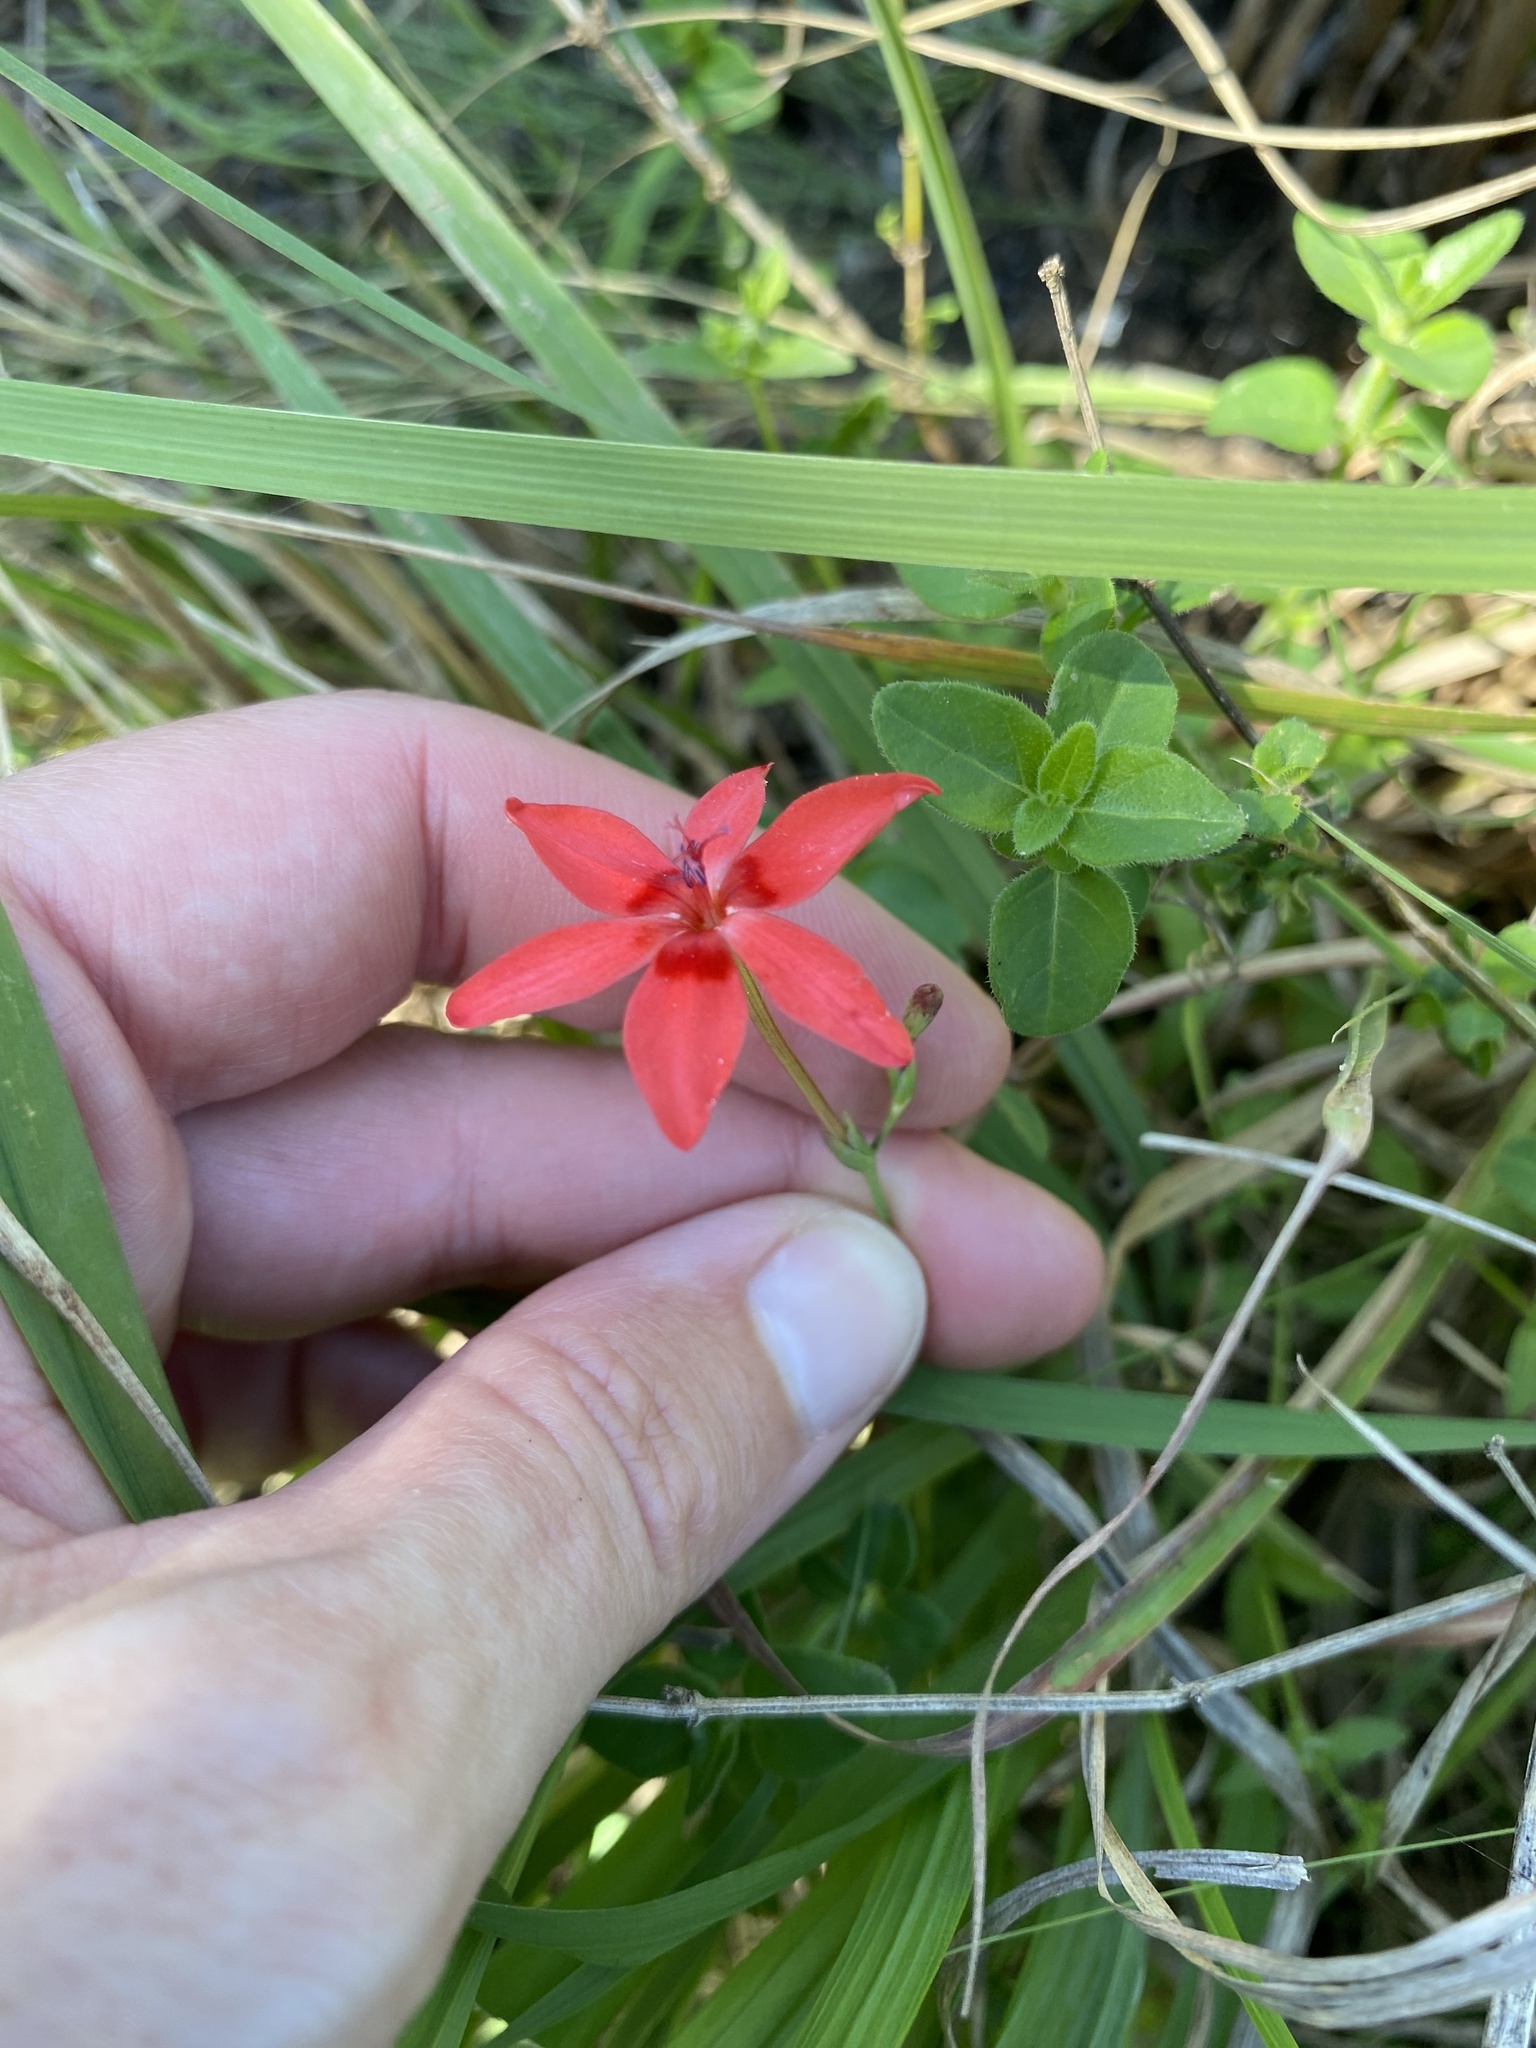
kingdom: Plantae
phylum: Tracheophyta
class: Liliopsida
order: Asparagales
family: Iridaceae
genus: Freesia
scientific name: Freesia laxa
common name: False freesia
